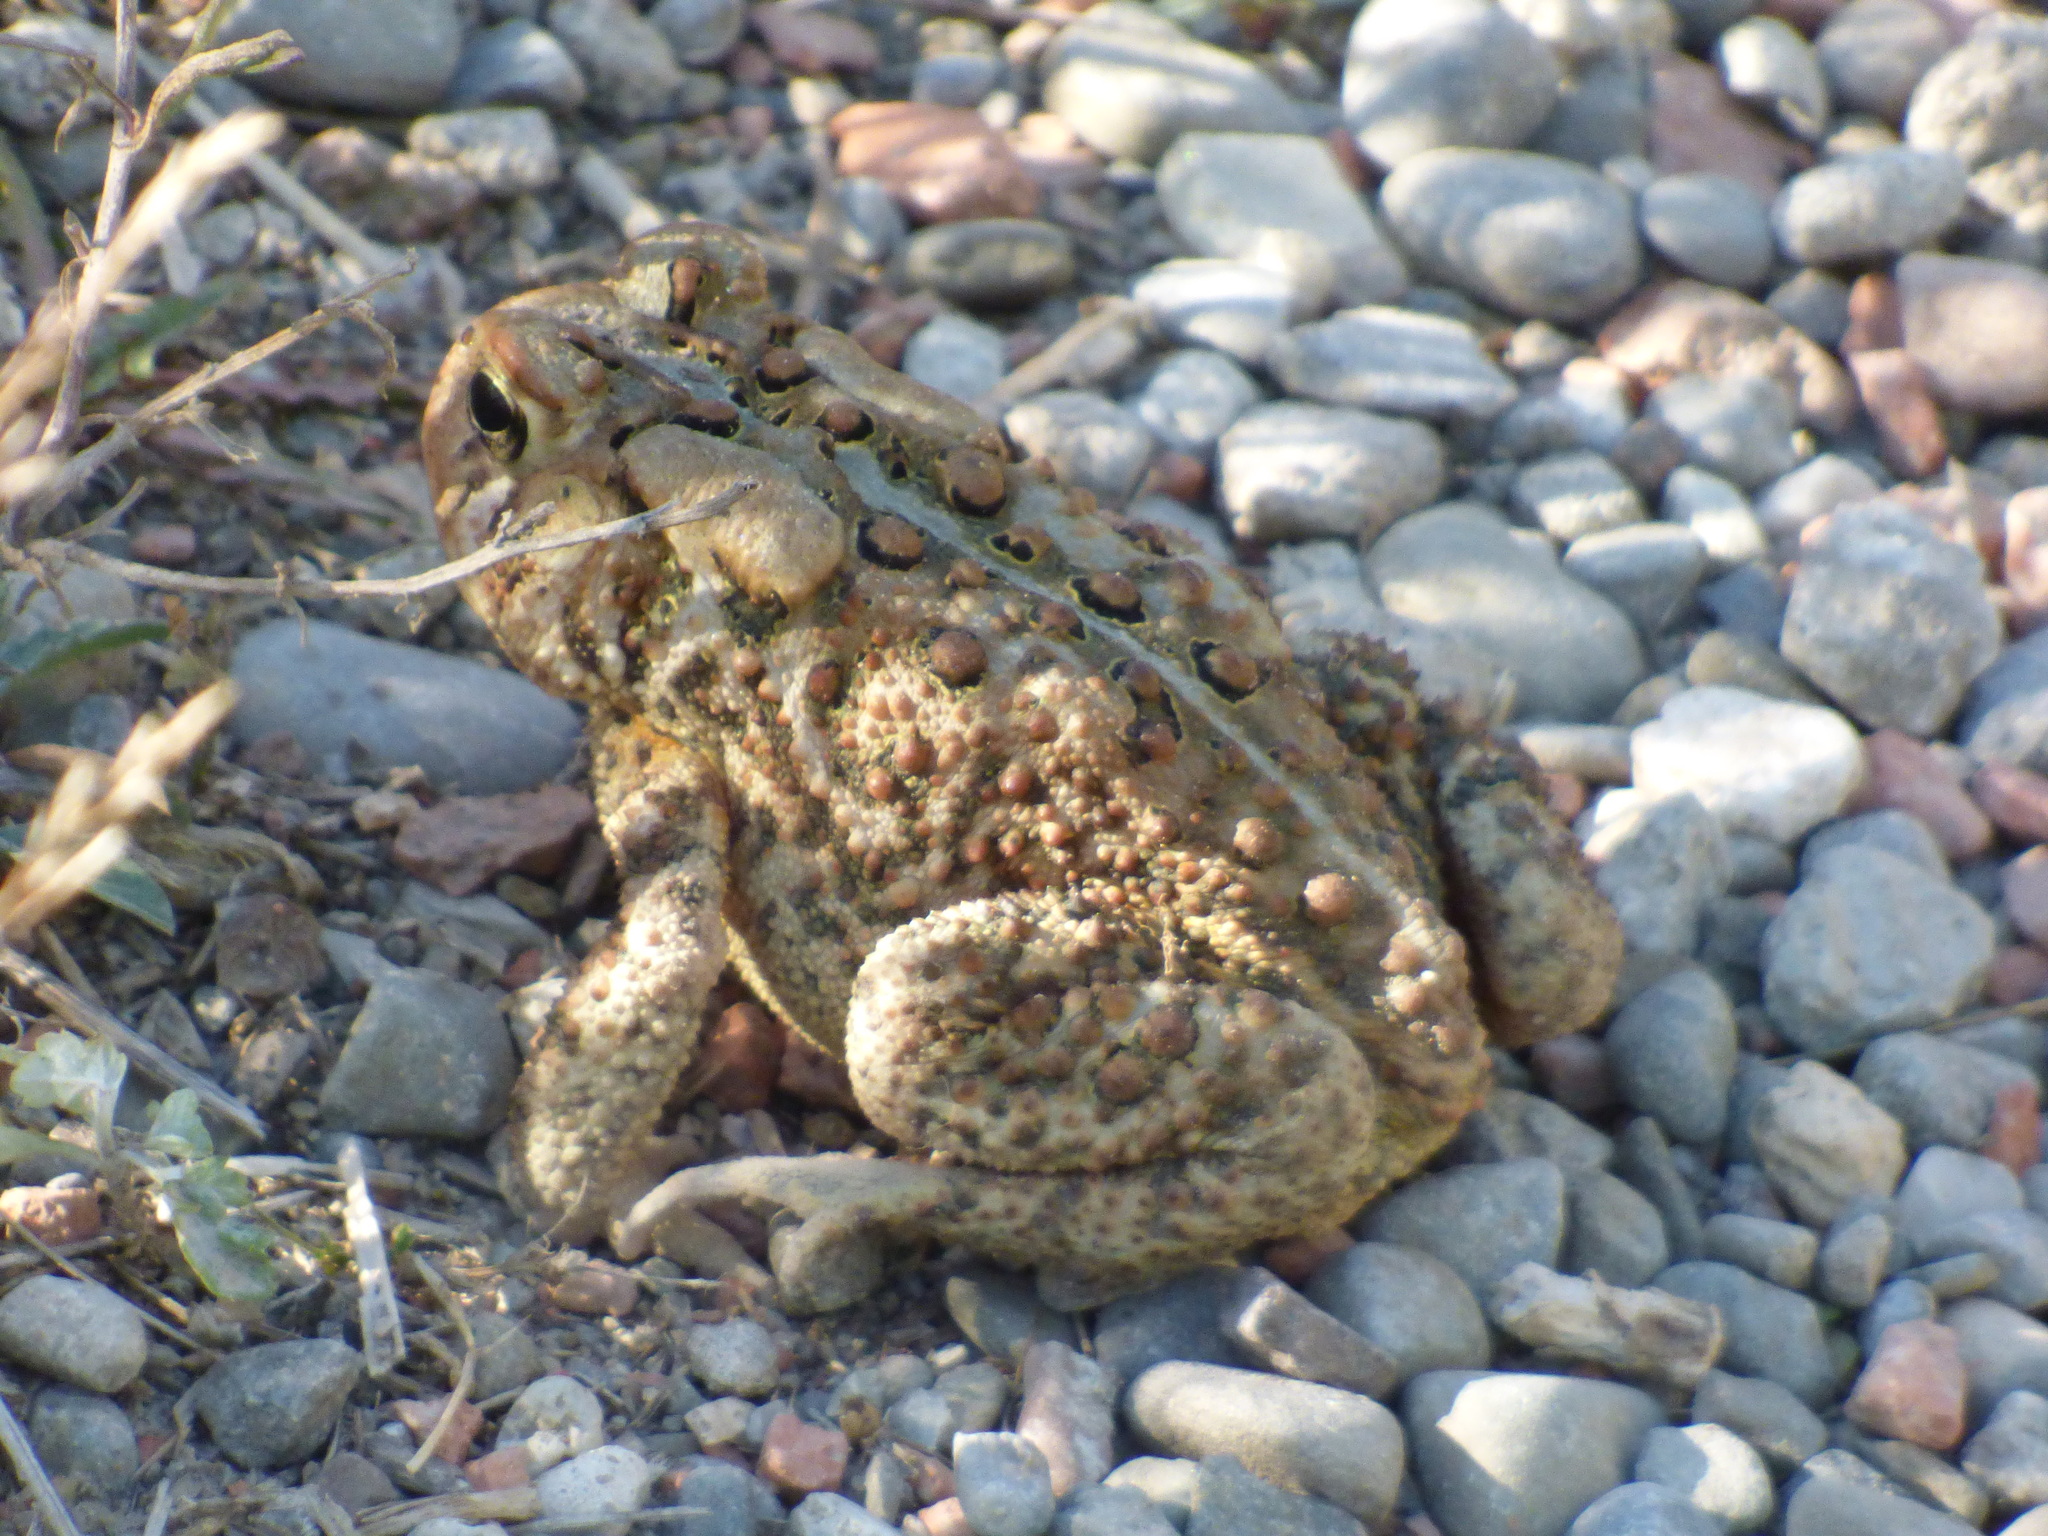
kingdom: Animalia
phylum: Chordata
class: Amphibia
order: Anura
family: Bufonidae
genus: Anaxyrus
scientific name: Anaxyrus americanus
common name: American toad
